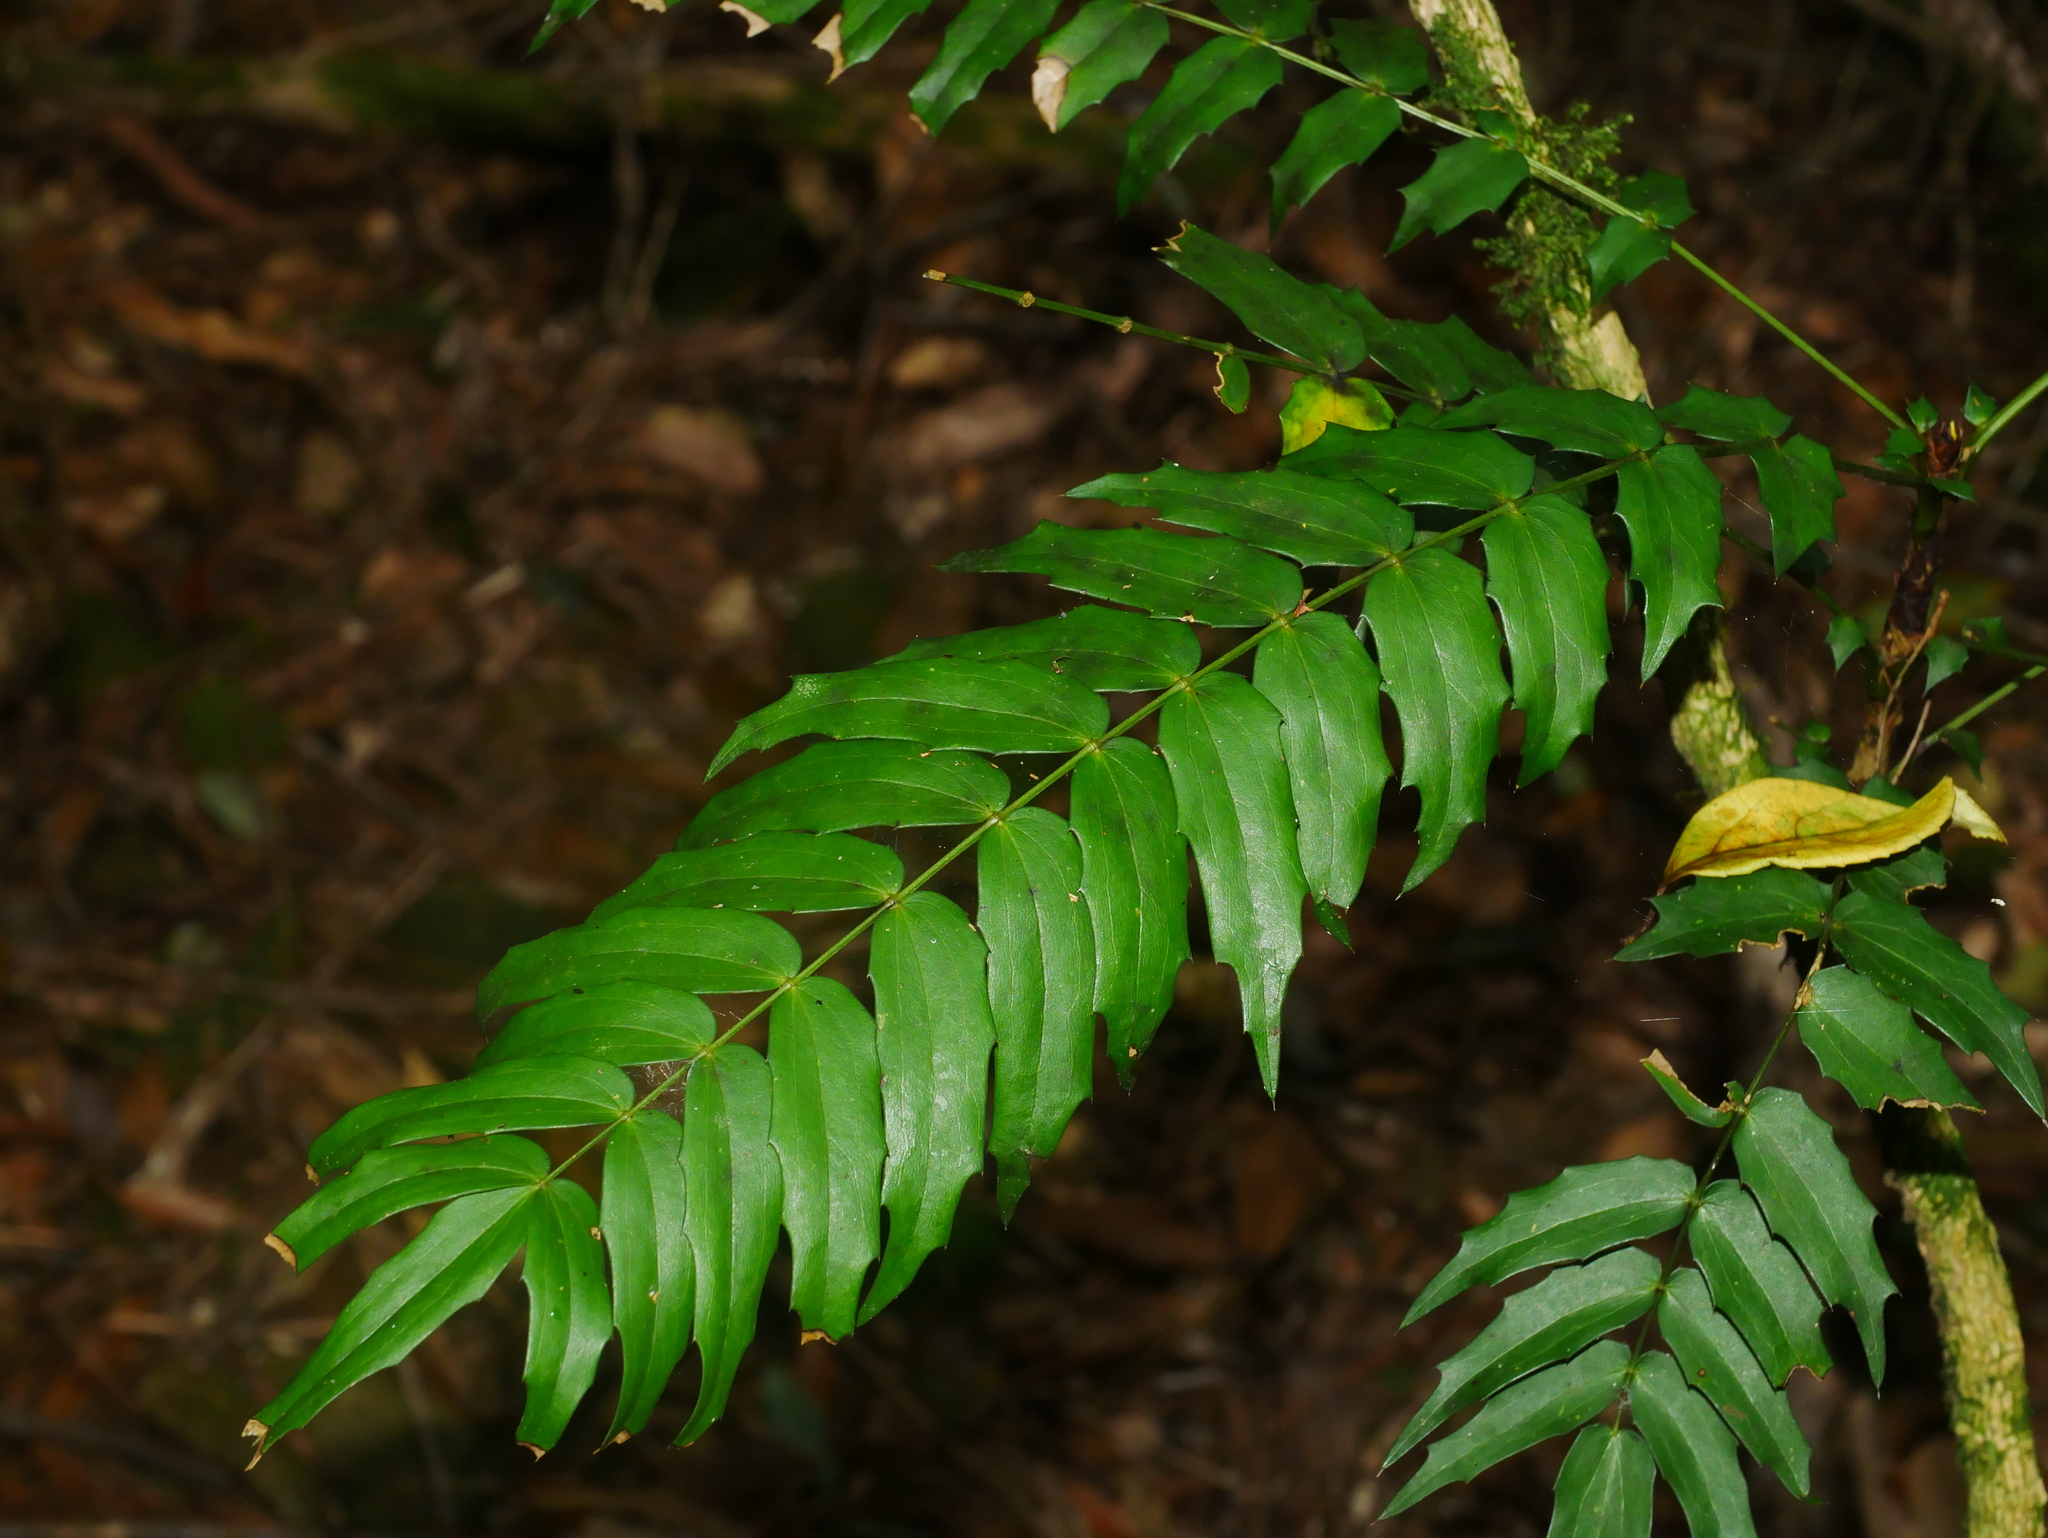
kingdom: Plantae
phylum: Tracheophyta
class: Magnoliopsida
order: Ranunculales
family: Berberidaceae
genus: Mahonia
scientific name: Mahonia oiwakensis
